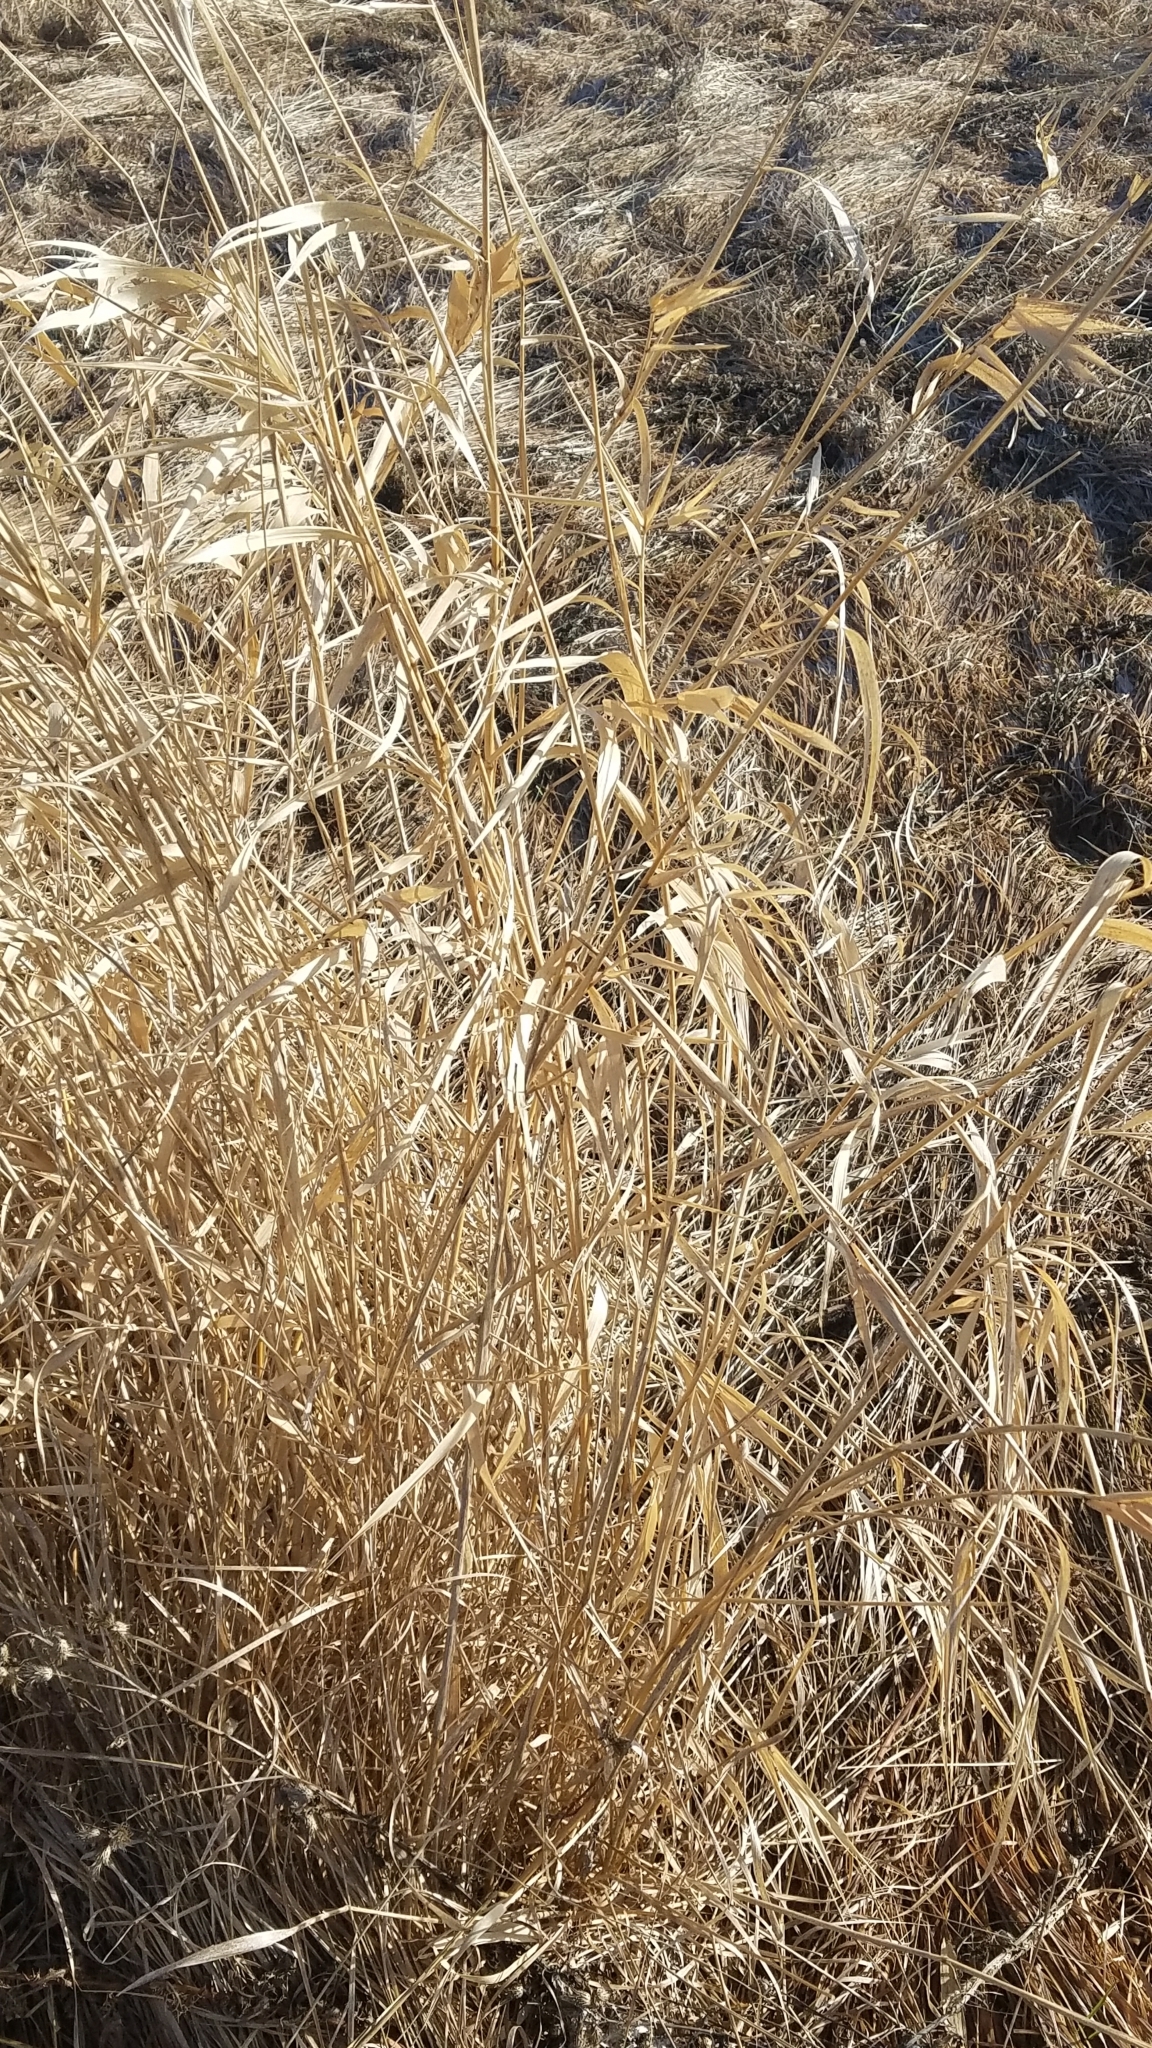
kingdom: Plantae
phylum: Tracheophyta
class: Liliopsida
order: Poales
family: Poaceae
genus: Phalaris
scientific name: Phalaris arundinacea
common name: Reed canary-grass
